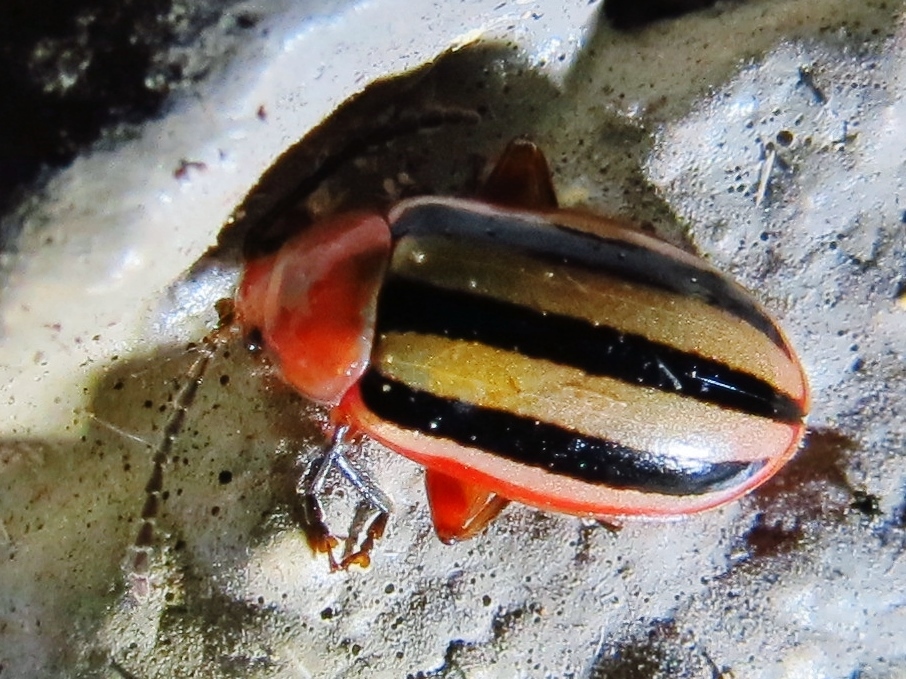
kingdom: Animalia
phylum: Arthropoda
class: Insecta
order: Coleoptera
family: Chrysomelidae
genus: Disonycha
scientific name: Disonycha leptolineata
